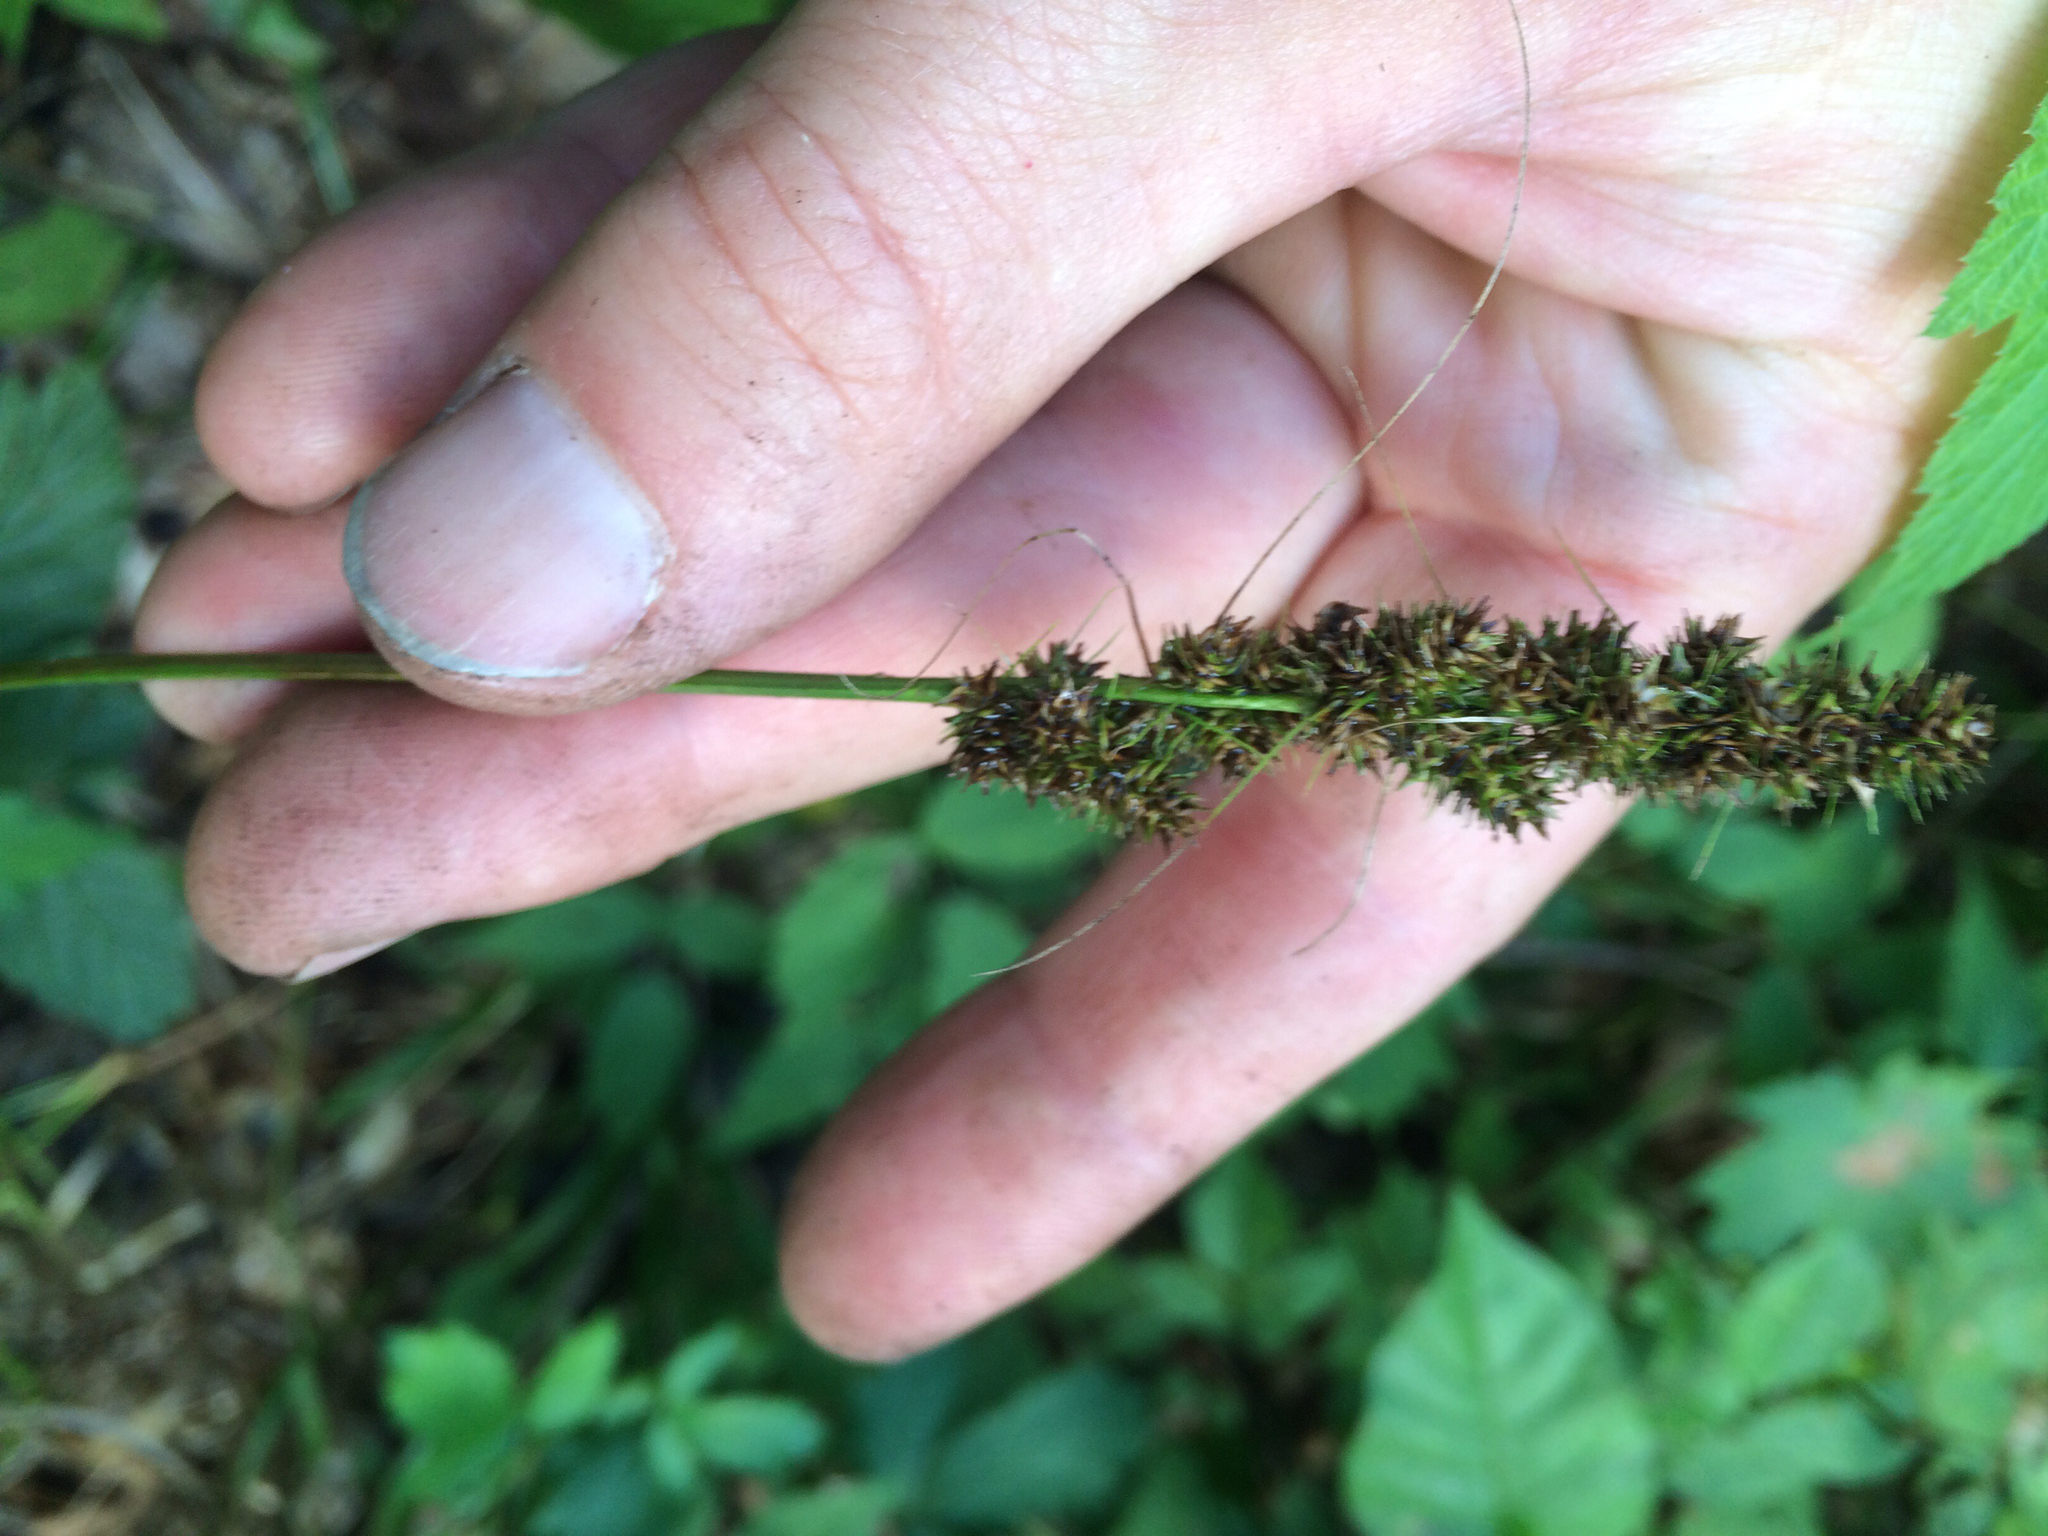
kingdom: Plantae
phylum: Tracheophyta
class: Liliopsida
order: Poales
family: Cyperaceae
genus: Carex
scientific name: Carex vulpinoidea
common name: American fox-sedge
